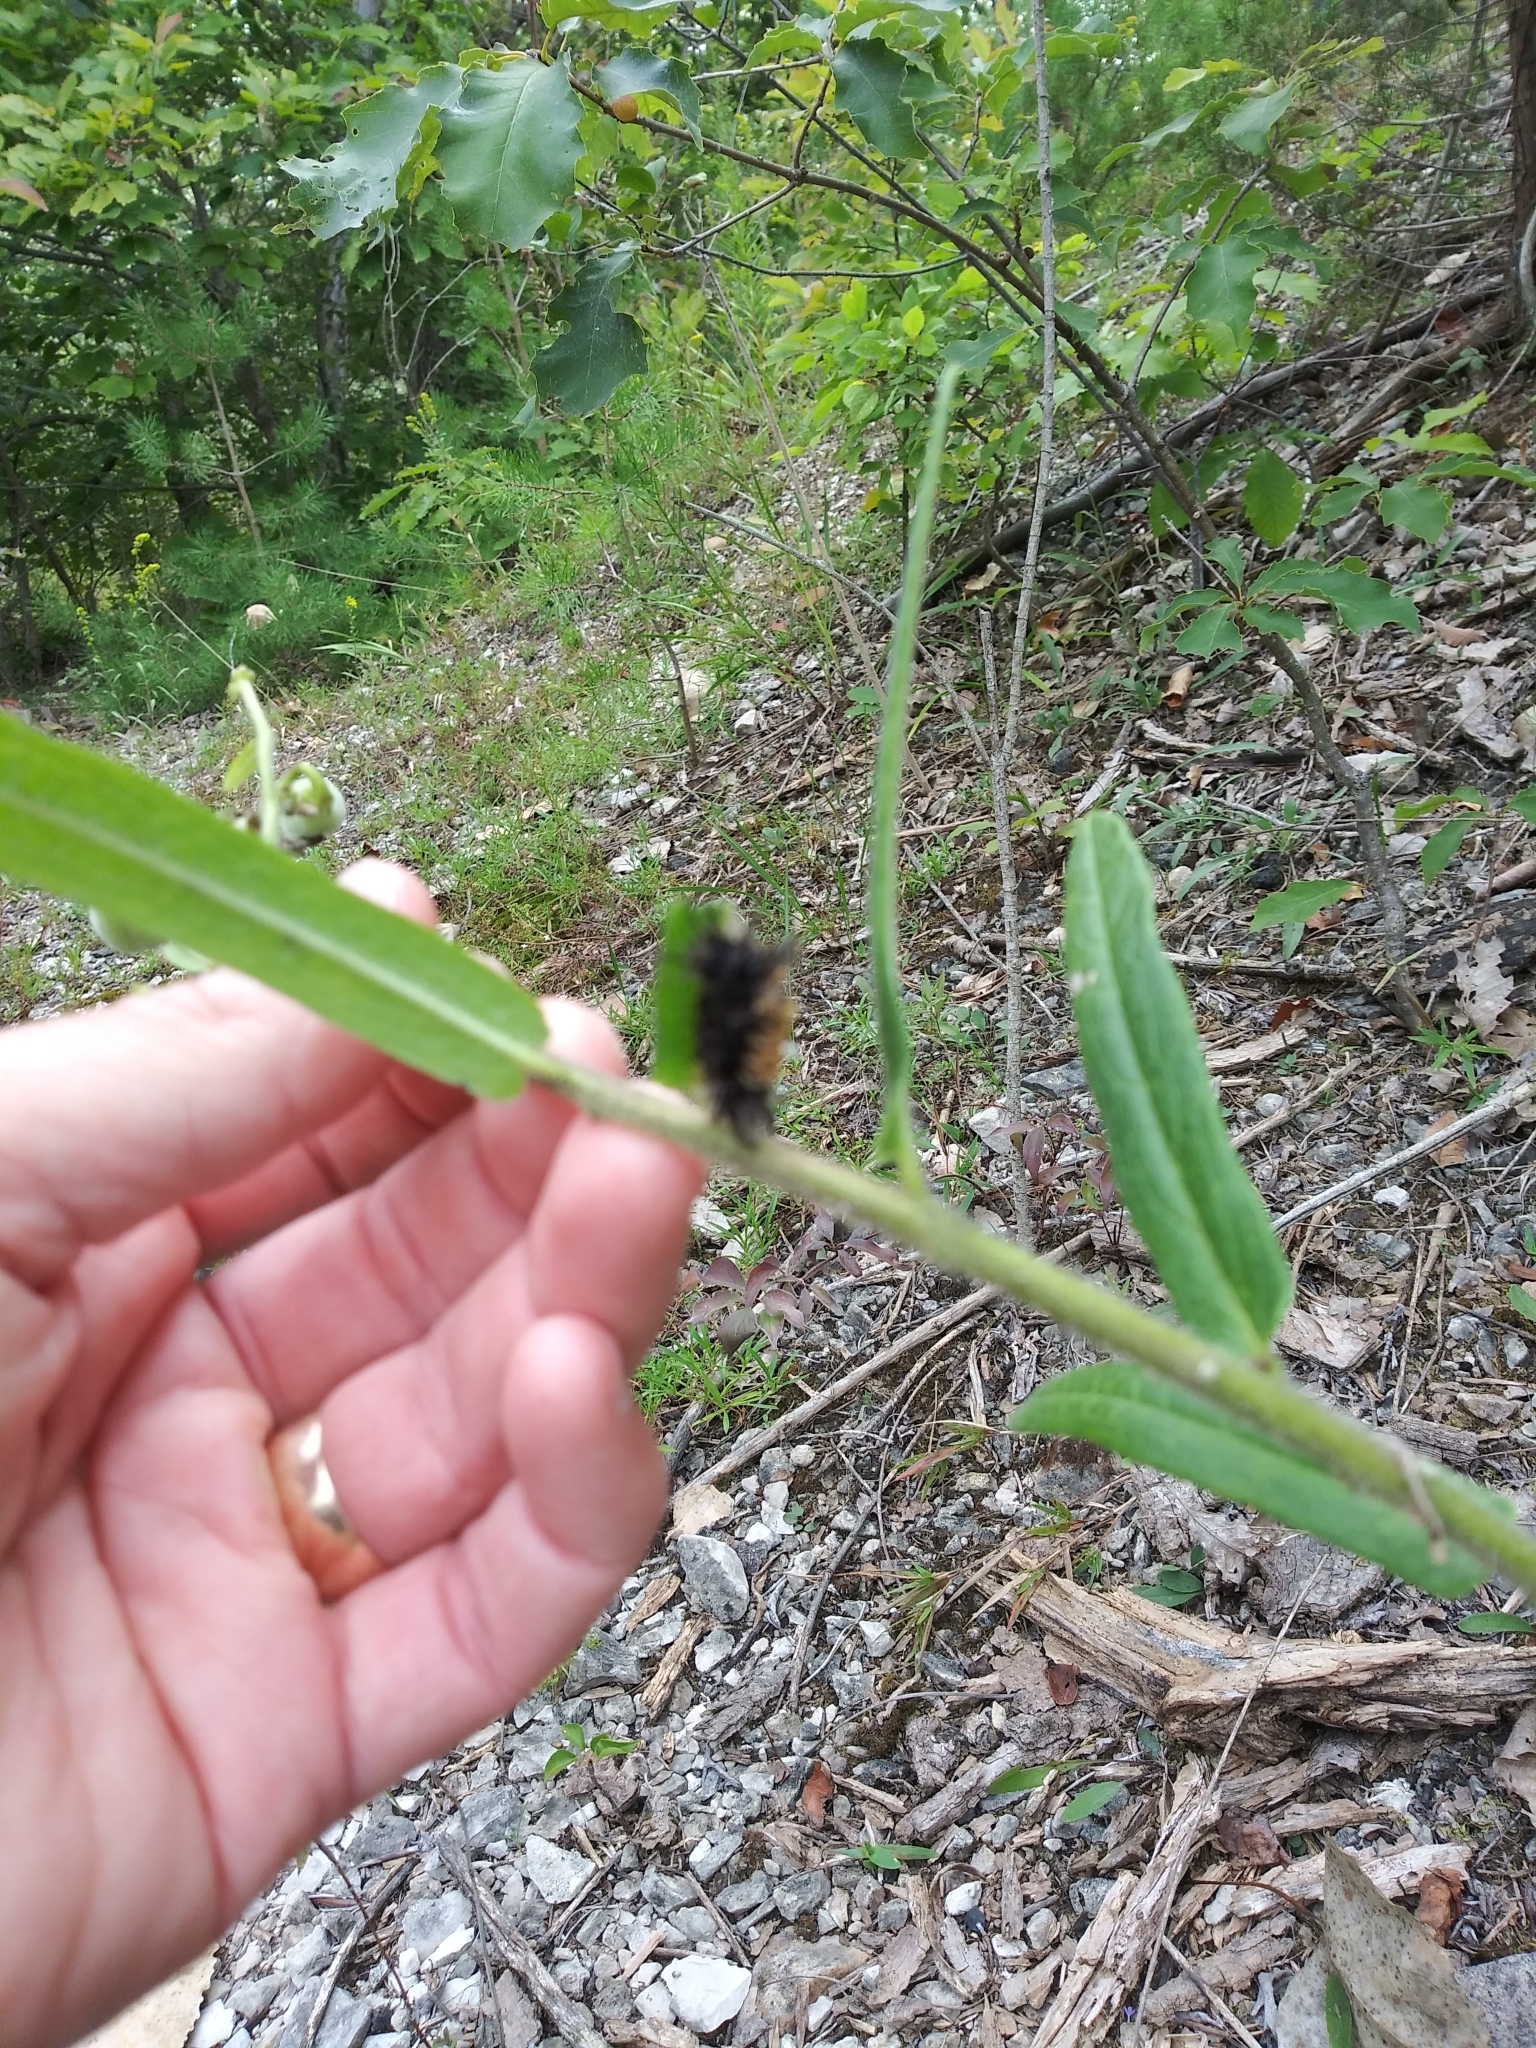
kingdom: Animalia
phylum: Arthropoda
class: Insecta
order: Lepidoptera
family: Erebidae
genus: Euchaetes
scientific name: Euchaetes egle
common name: Milkweed tussock moth
